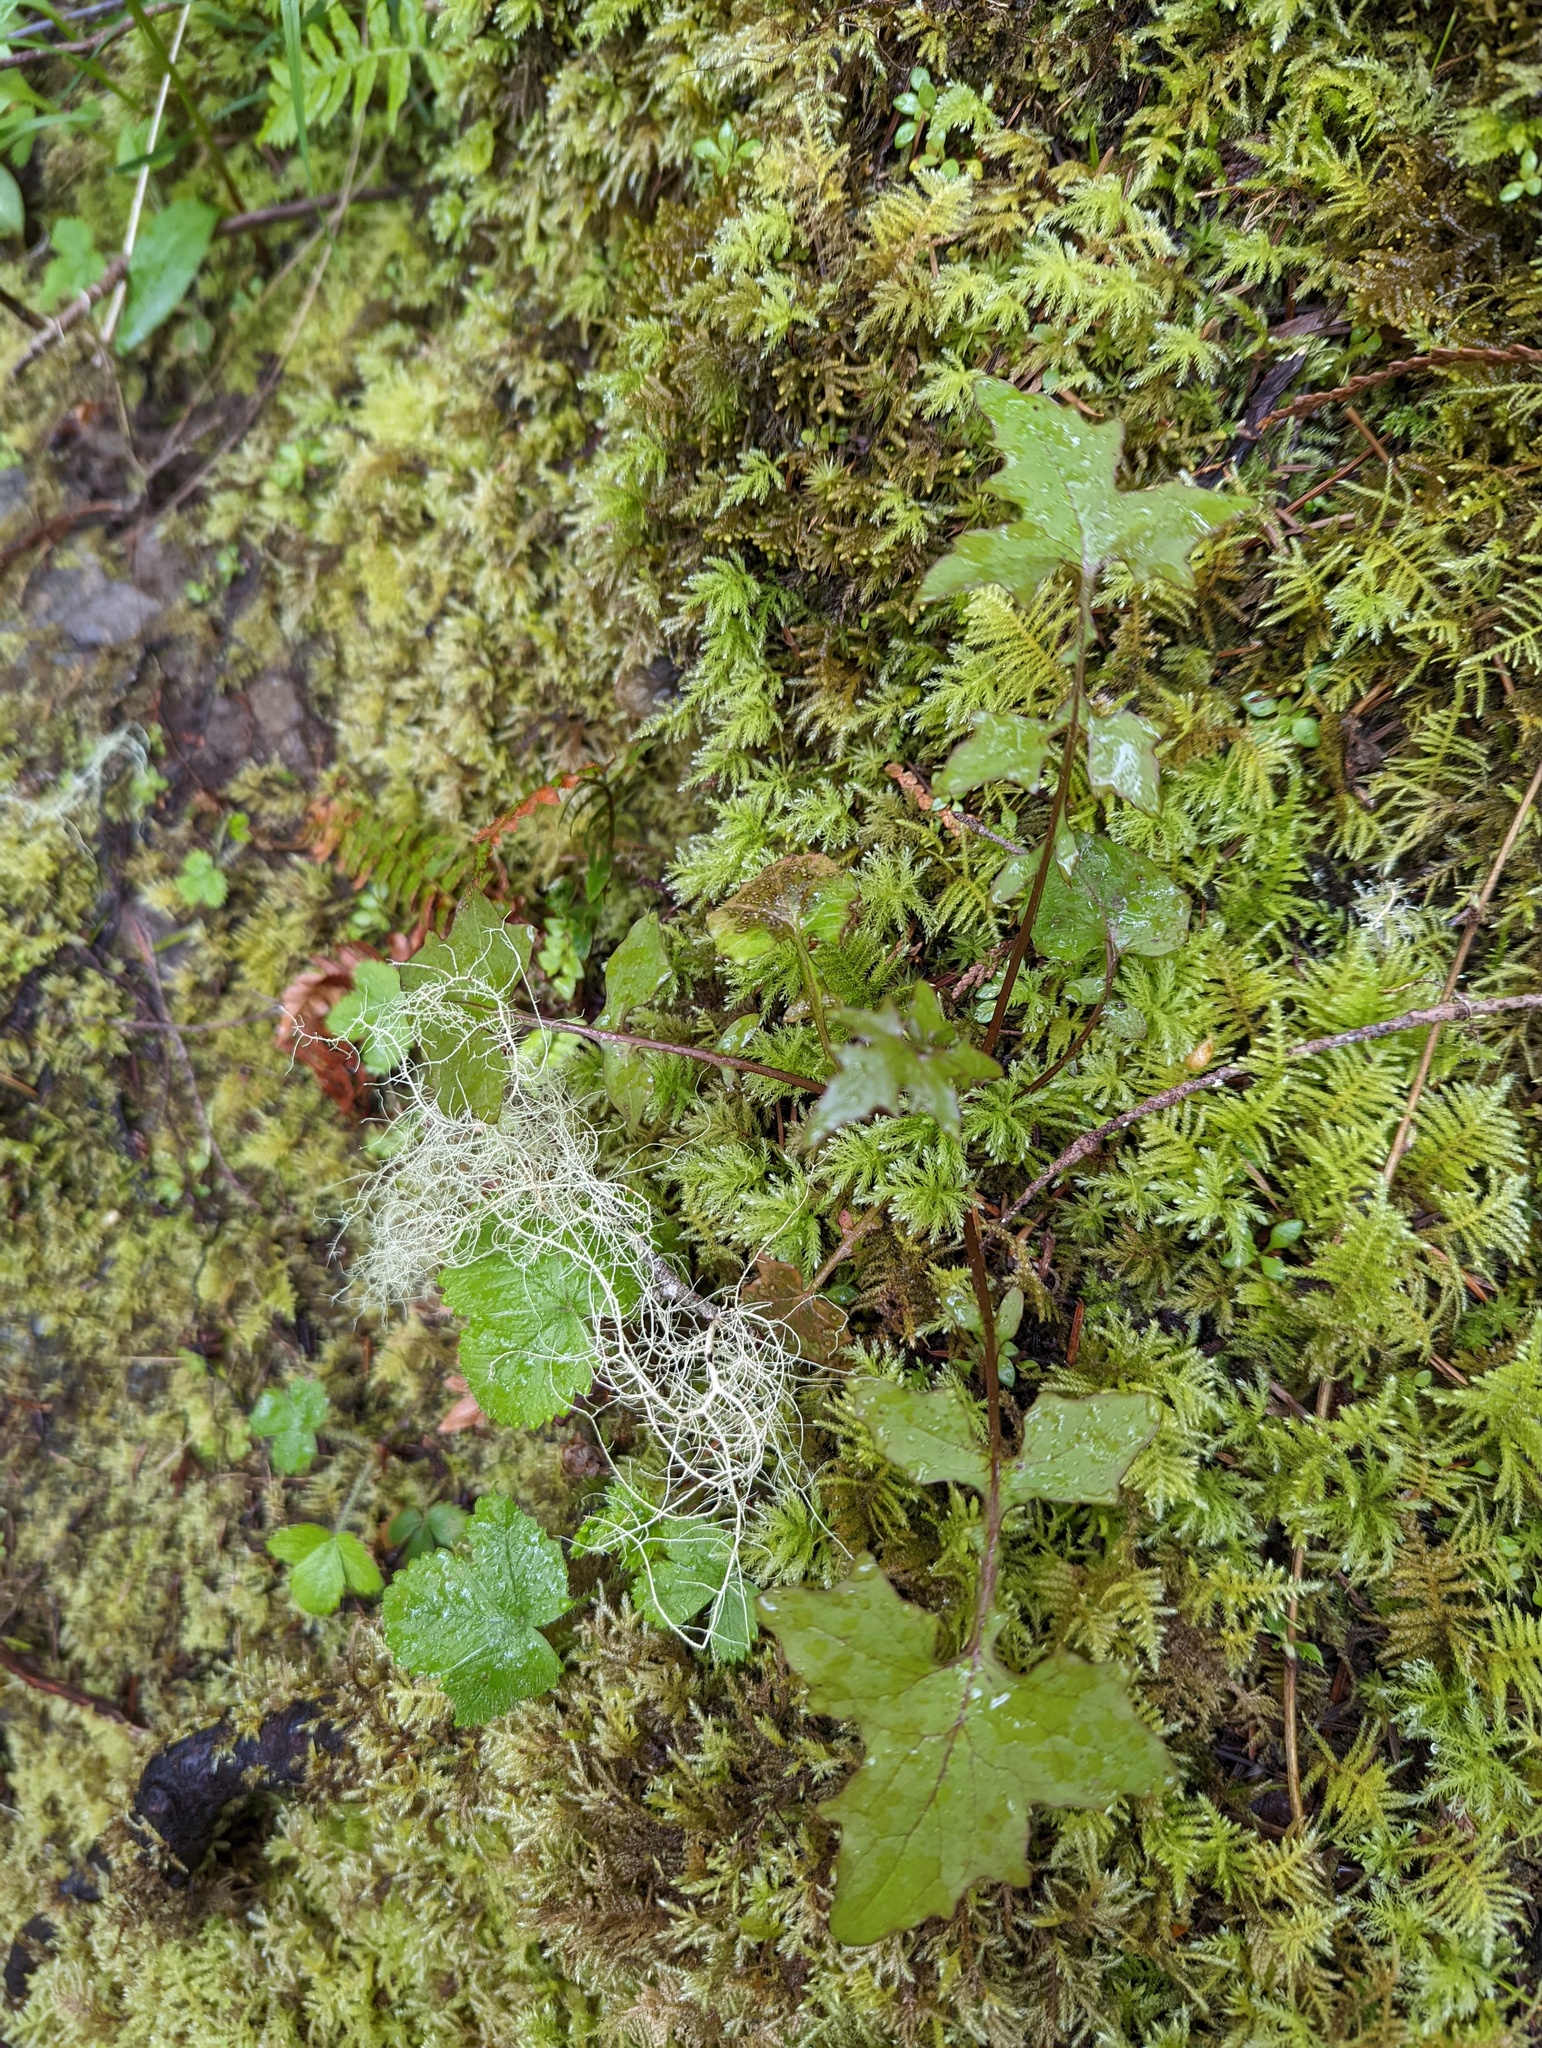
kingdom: Plantae
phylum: Tracheophyta
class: Magnoliopsida
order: Asterales
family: Asteraceae
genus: Mycelis
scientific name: Mycelis muralis
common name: Wall lettuce
